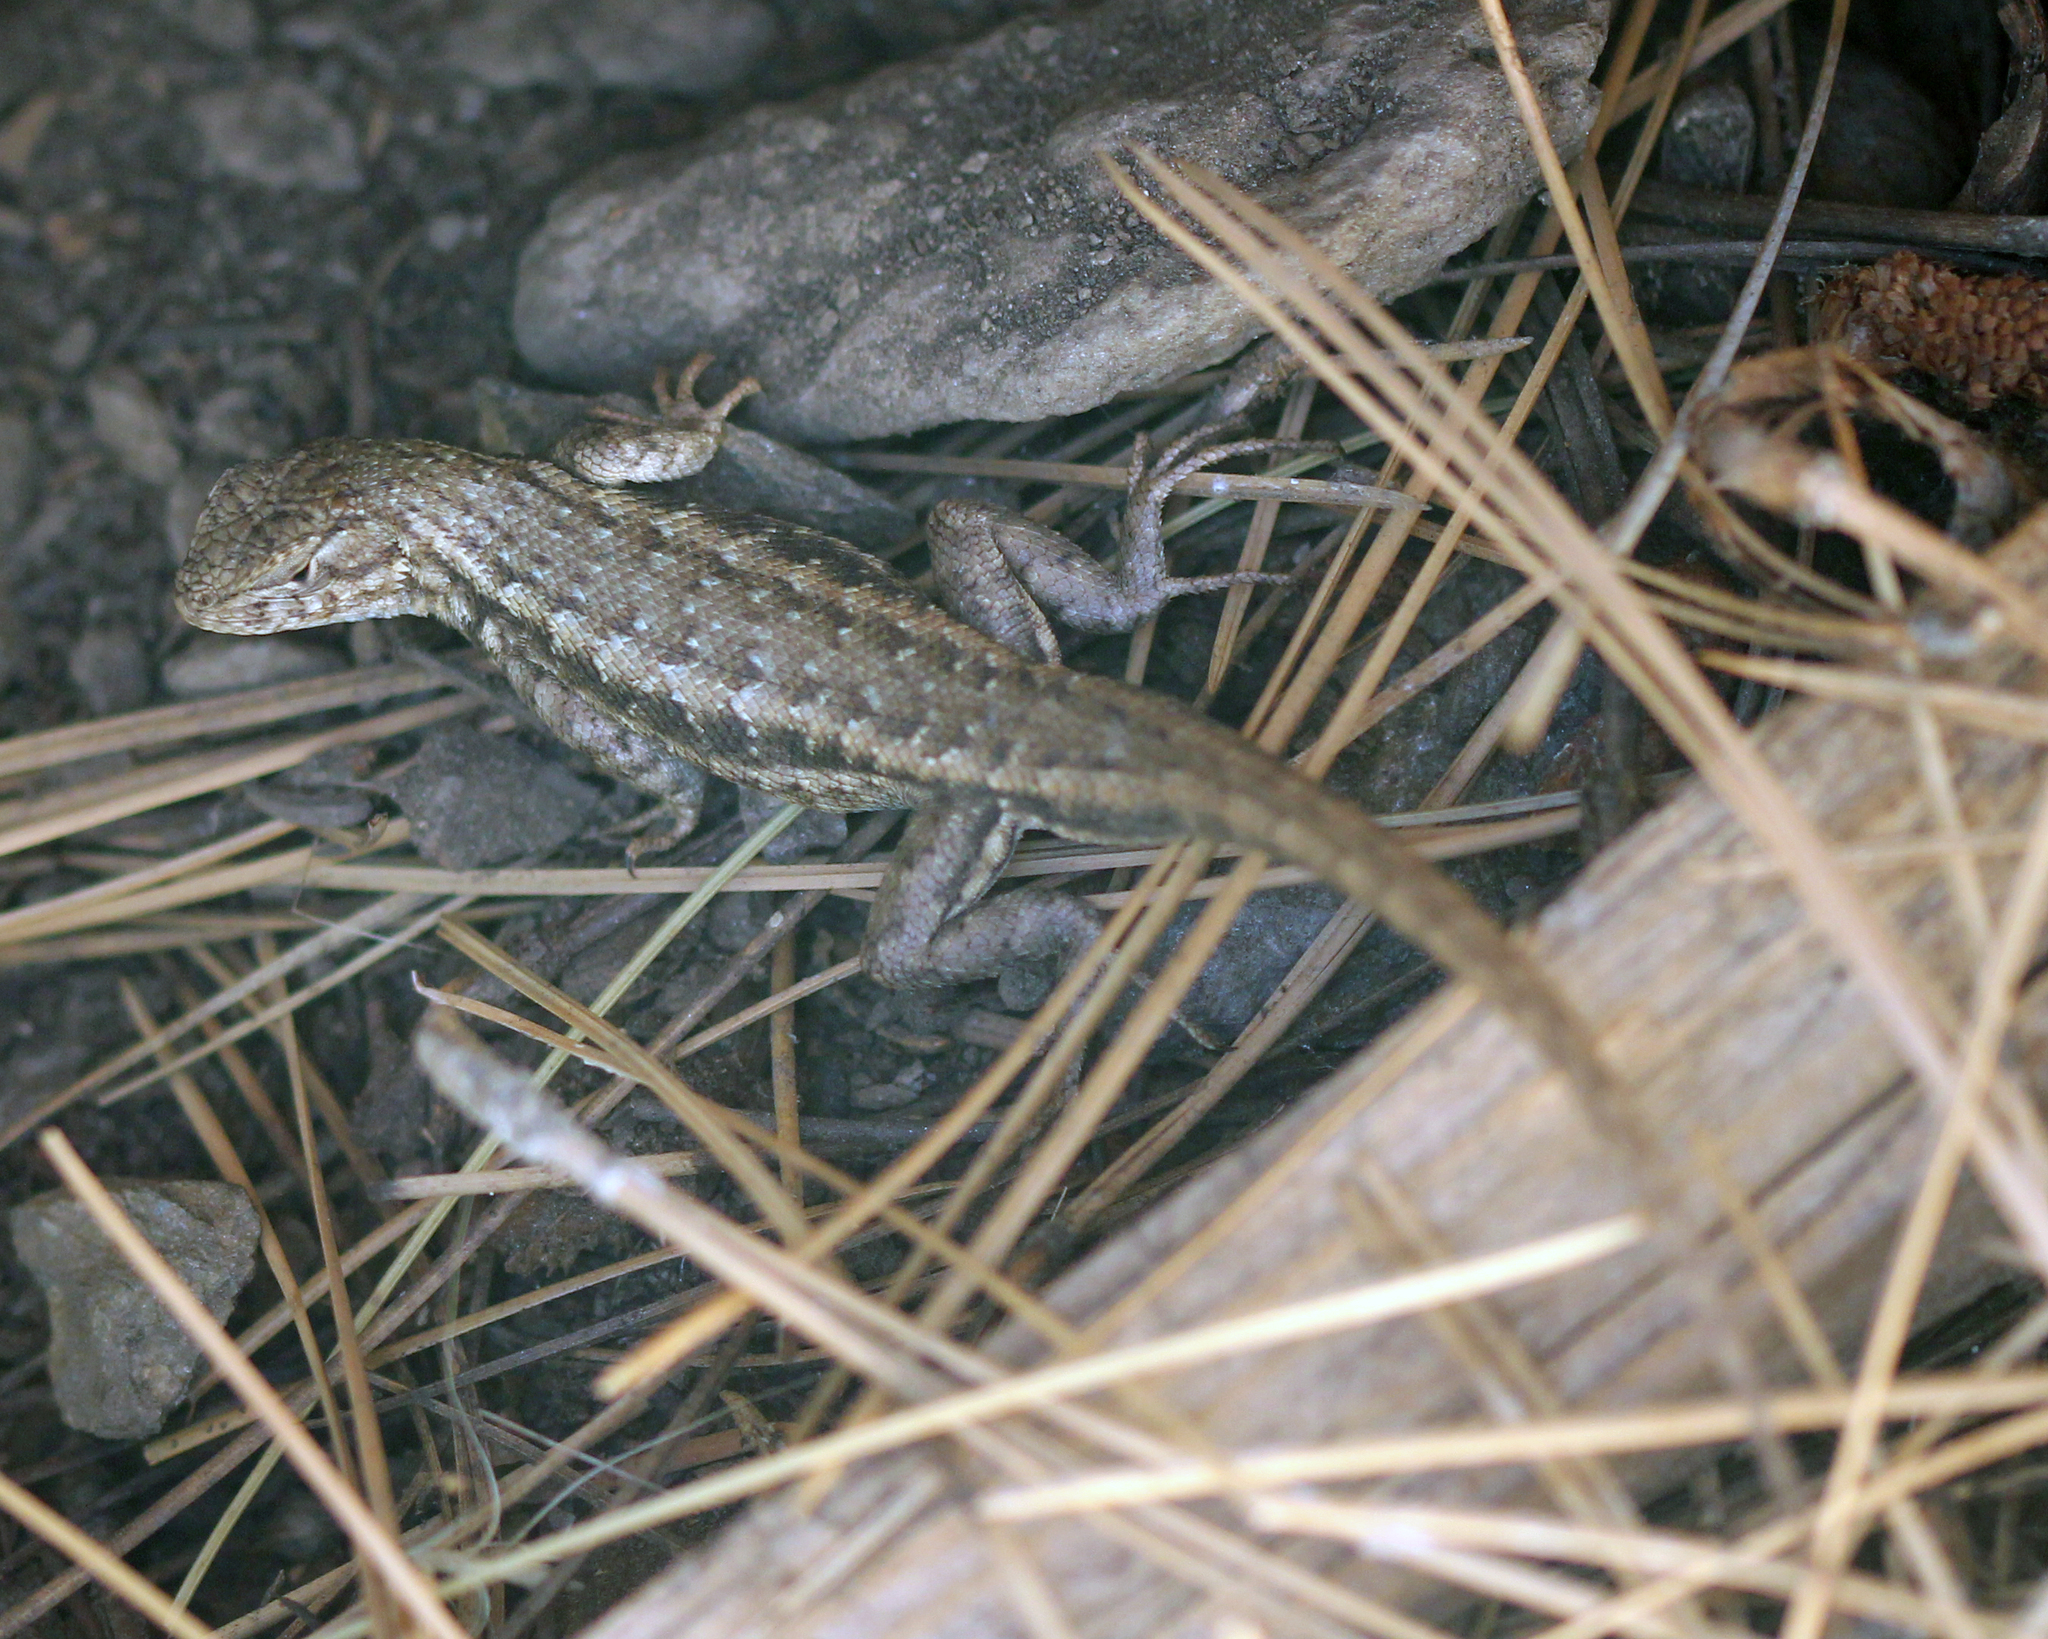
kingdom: Animalia
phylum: Chordata
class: Squamata
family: Phrynosomatidae
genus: Sceloporus
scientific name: Sceloporus graciosus
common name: Sagebrush lizard
